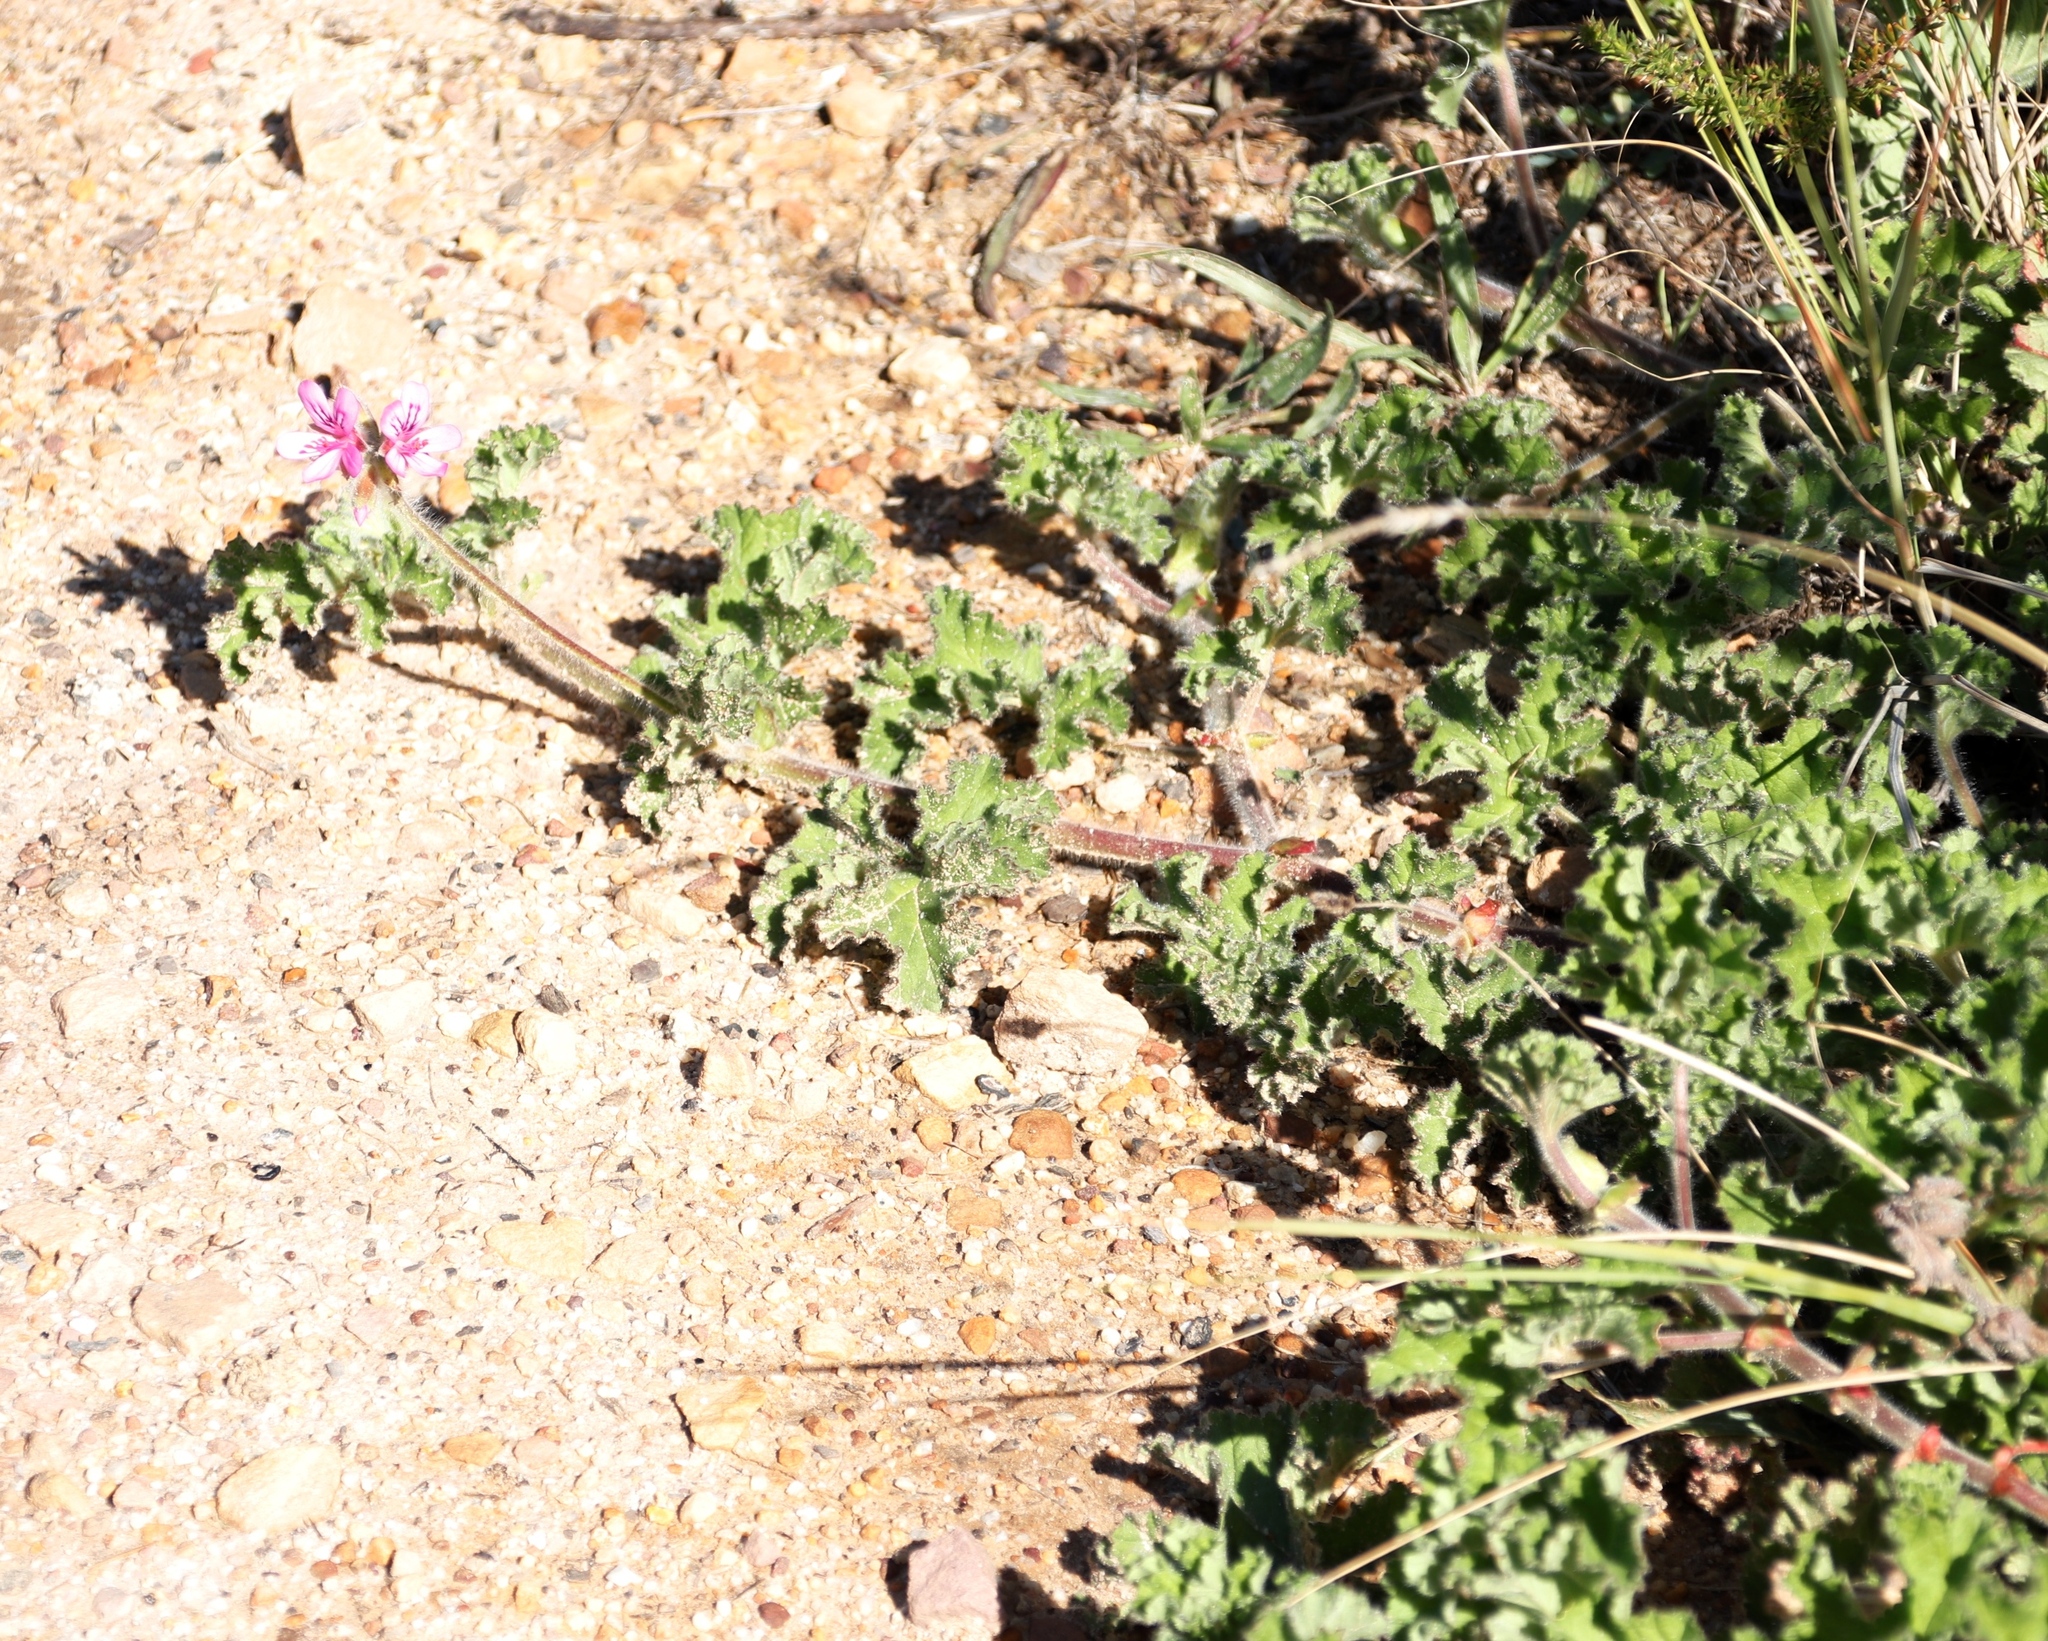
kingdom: Plantae
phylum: Tracheophyta
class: Magnoliopsida
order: Geraniales
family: Geraniaceae
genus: Pelargonium
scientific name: Pelargonium capitatum
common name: Rose scented geranium
